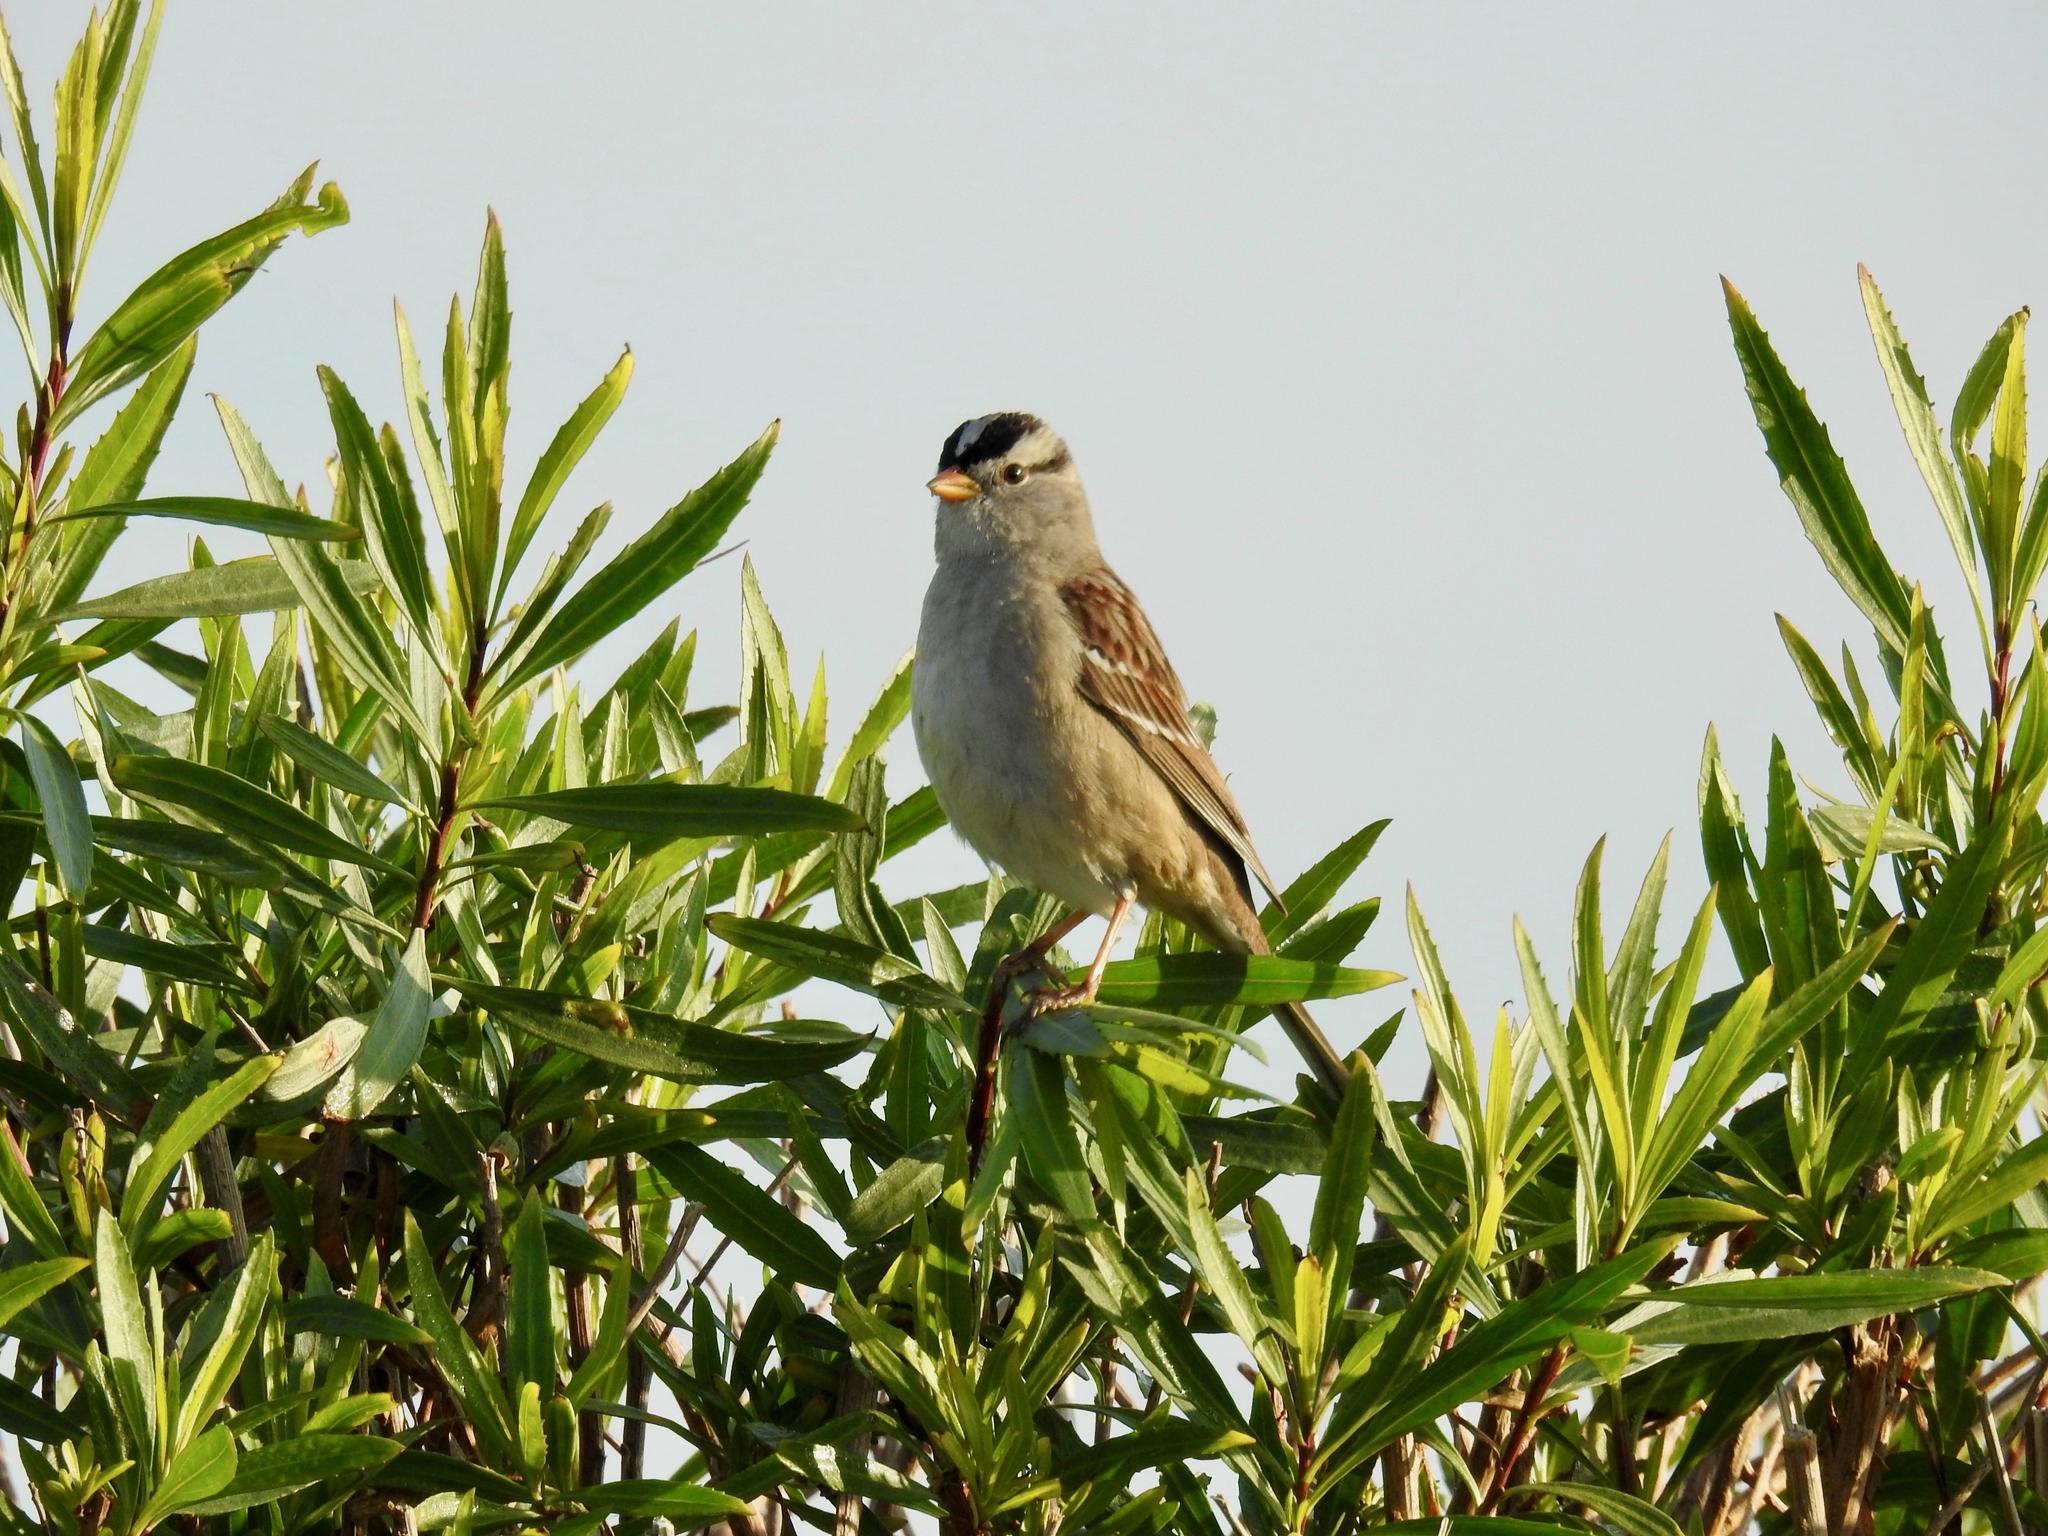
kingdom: Animalia
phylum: Chordata
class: Aves
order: Passeriformes
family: Passerellidae
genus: Zonotrichia
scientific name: Zonotrichia leucophrys
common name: White-crowned sparrow
